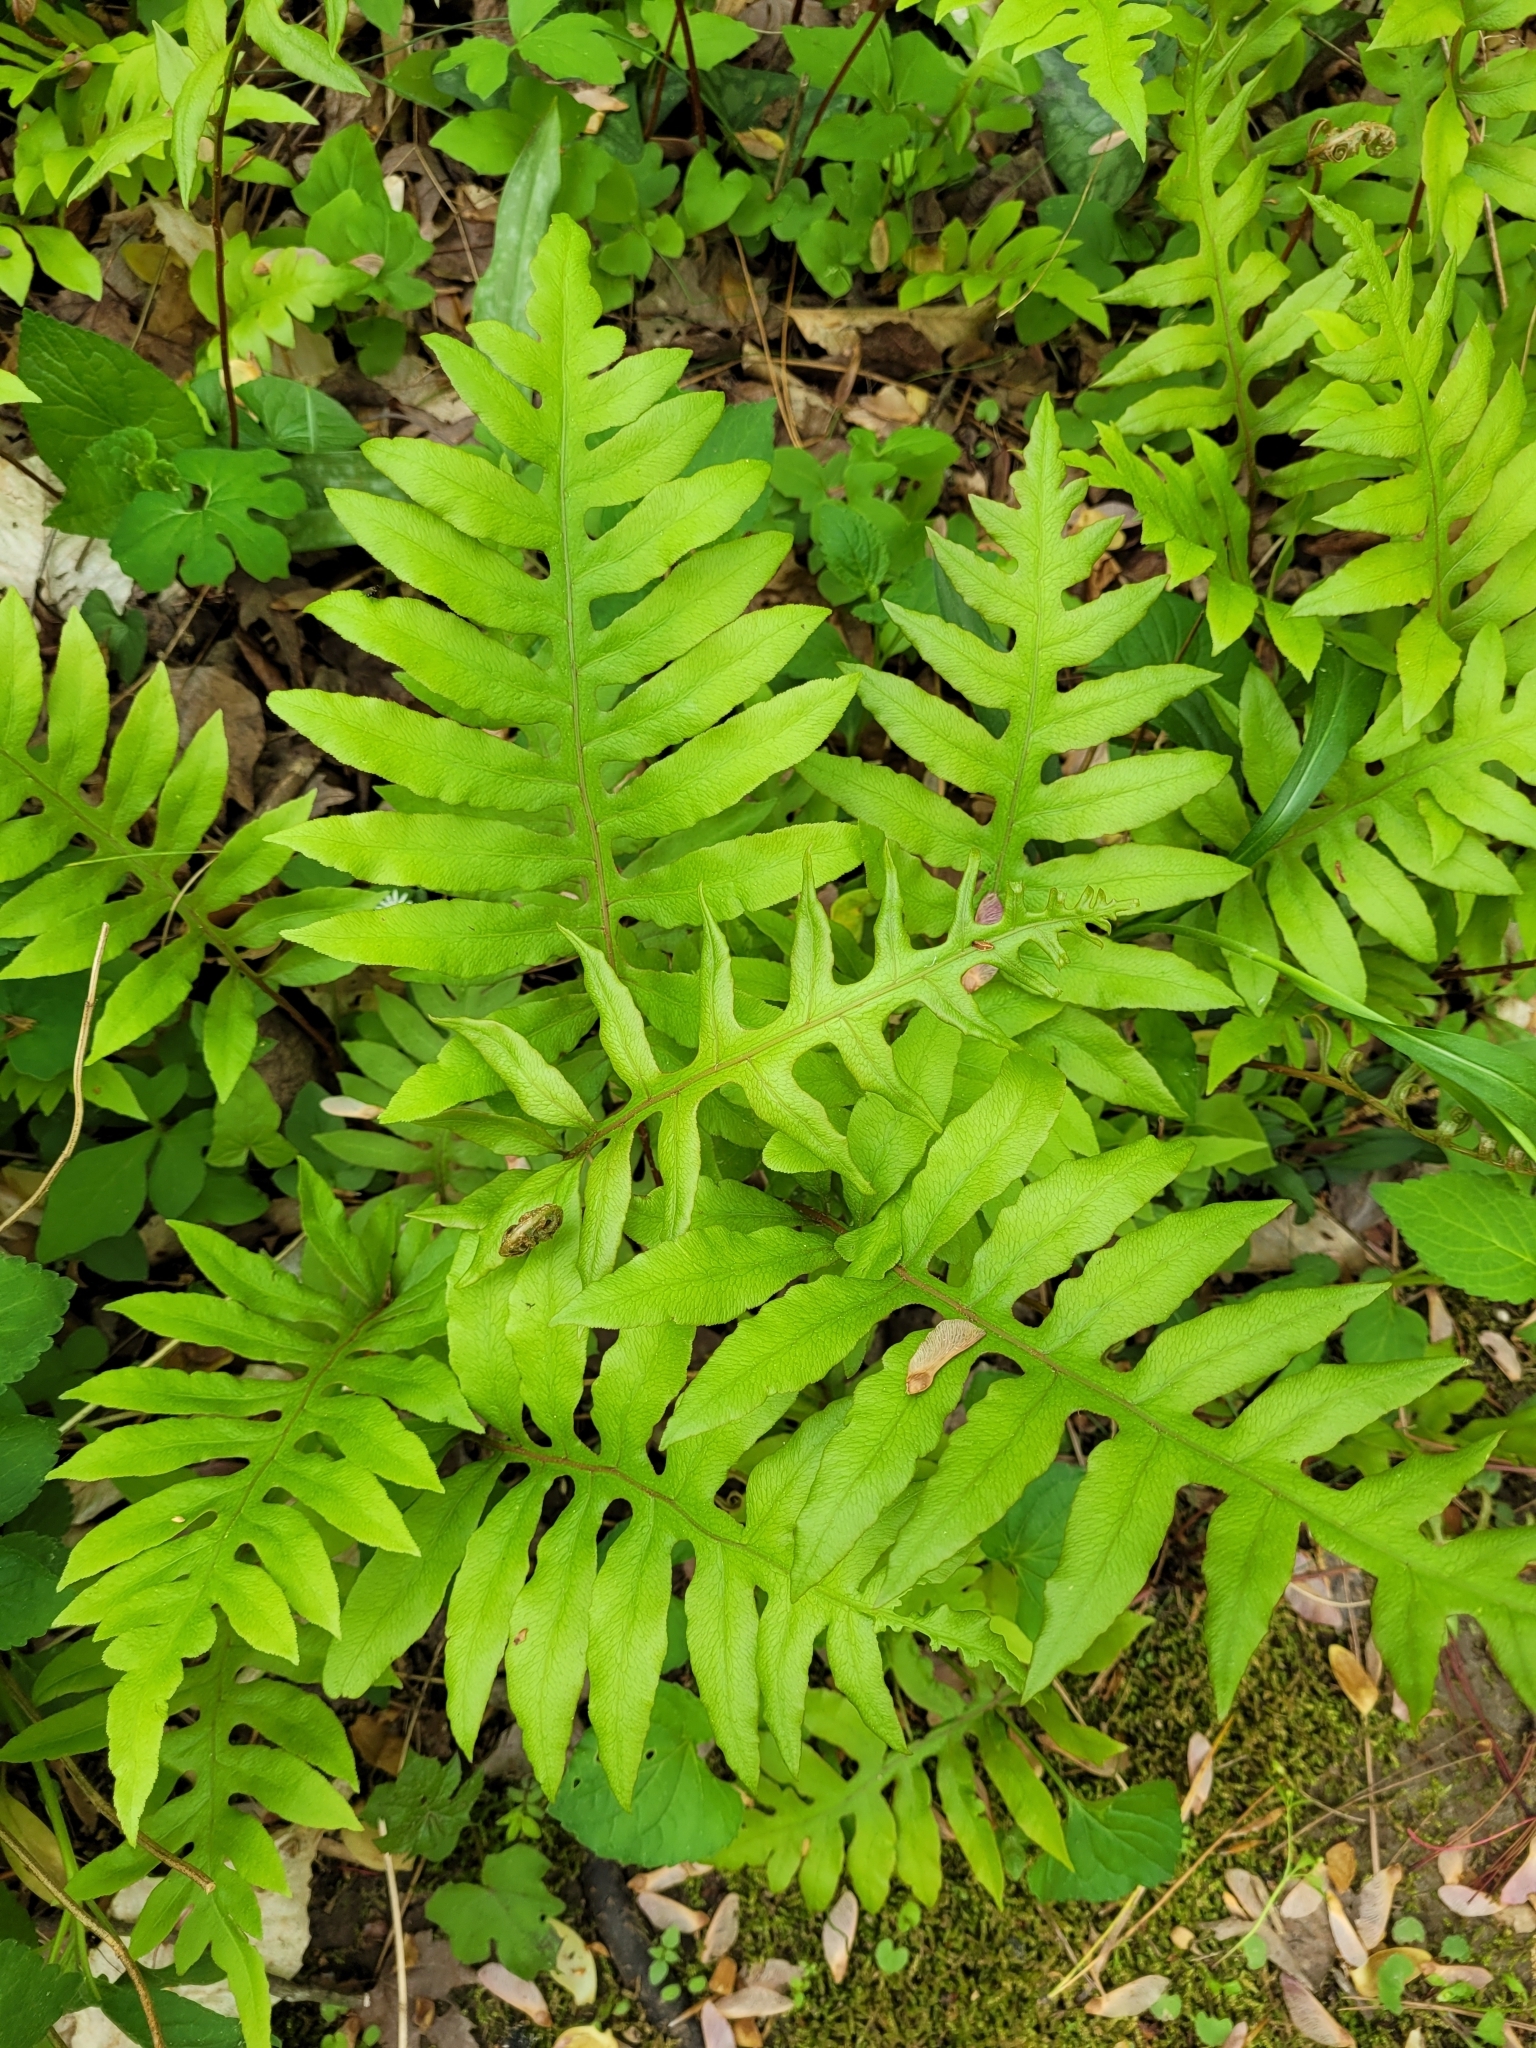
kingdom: Plantae
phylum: Tracheophyta
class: Polypodiopsida
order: Polypodiales
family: Blechnaceae
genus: Lorinseria
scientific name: Lorinseria areolata
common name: Dwarf chain fern
